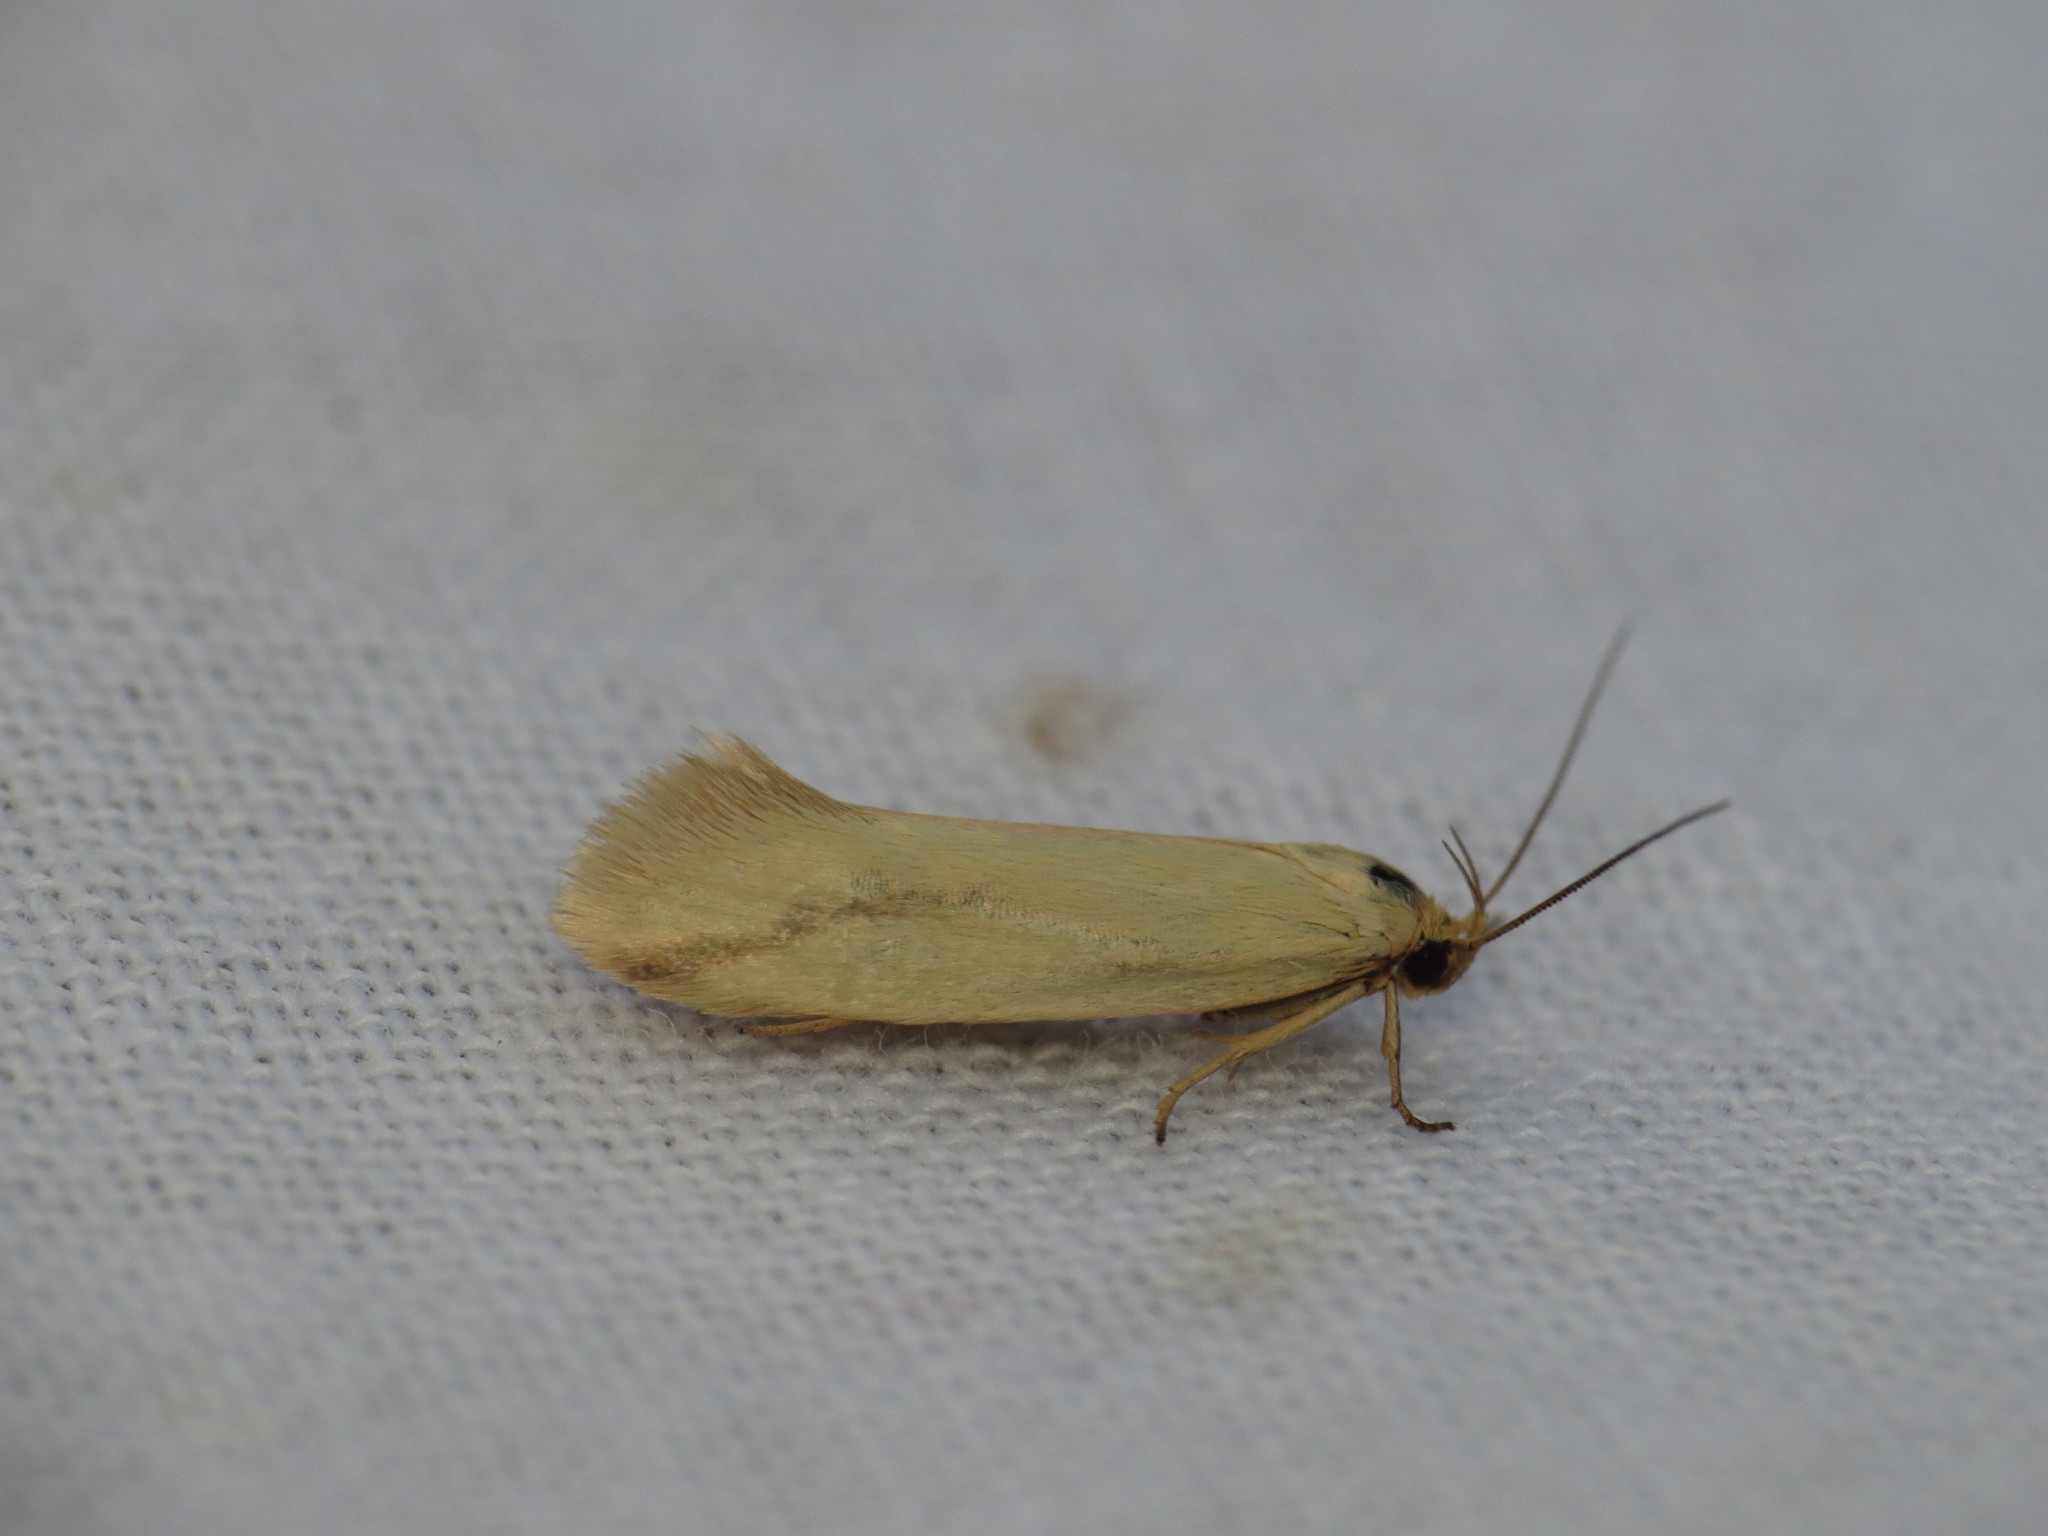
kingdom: Animalia
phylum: Arthropoda
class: Insecta
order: Lepidoptera
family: Oecophoridae
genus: Corynotricha
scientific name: Corynotricha antipodella
